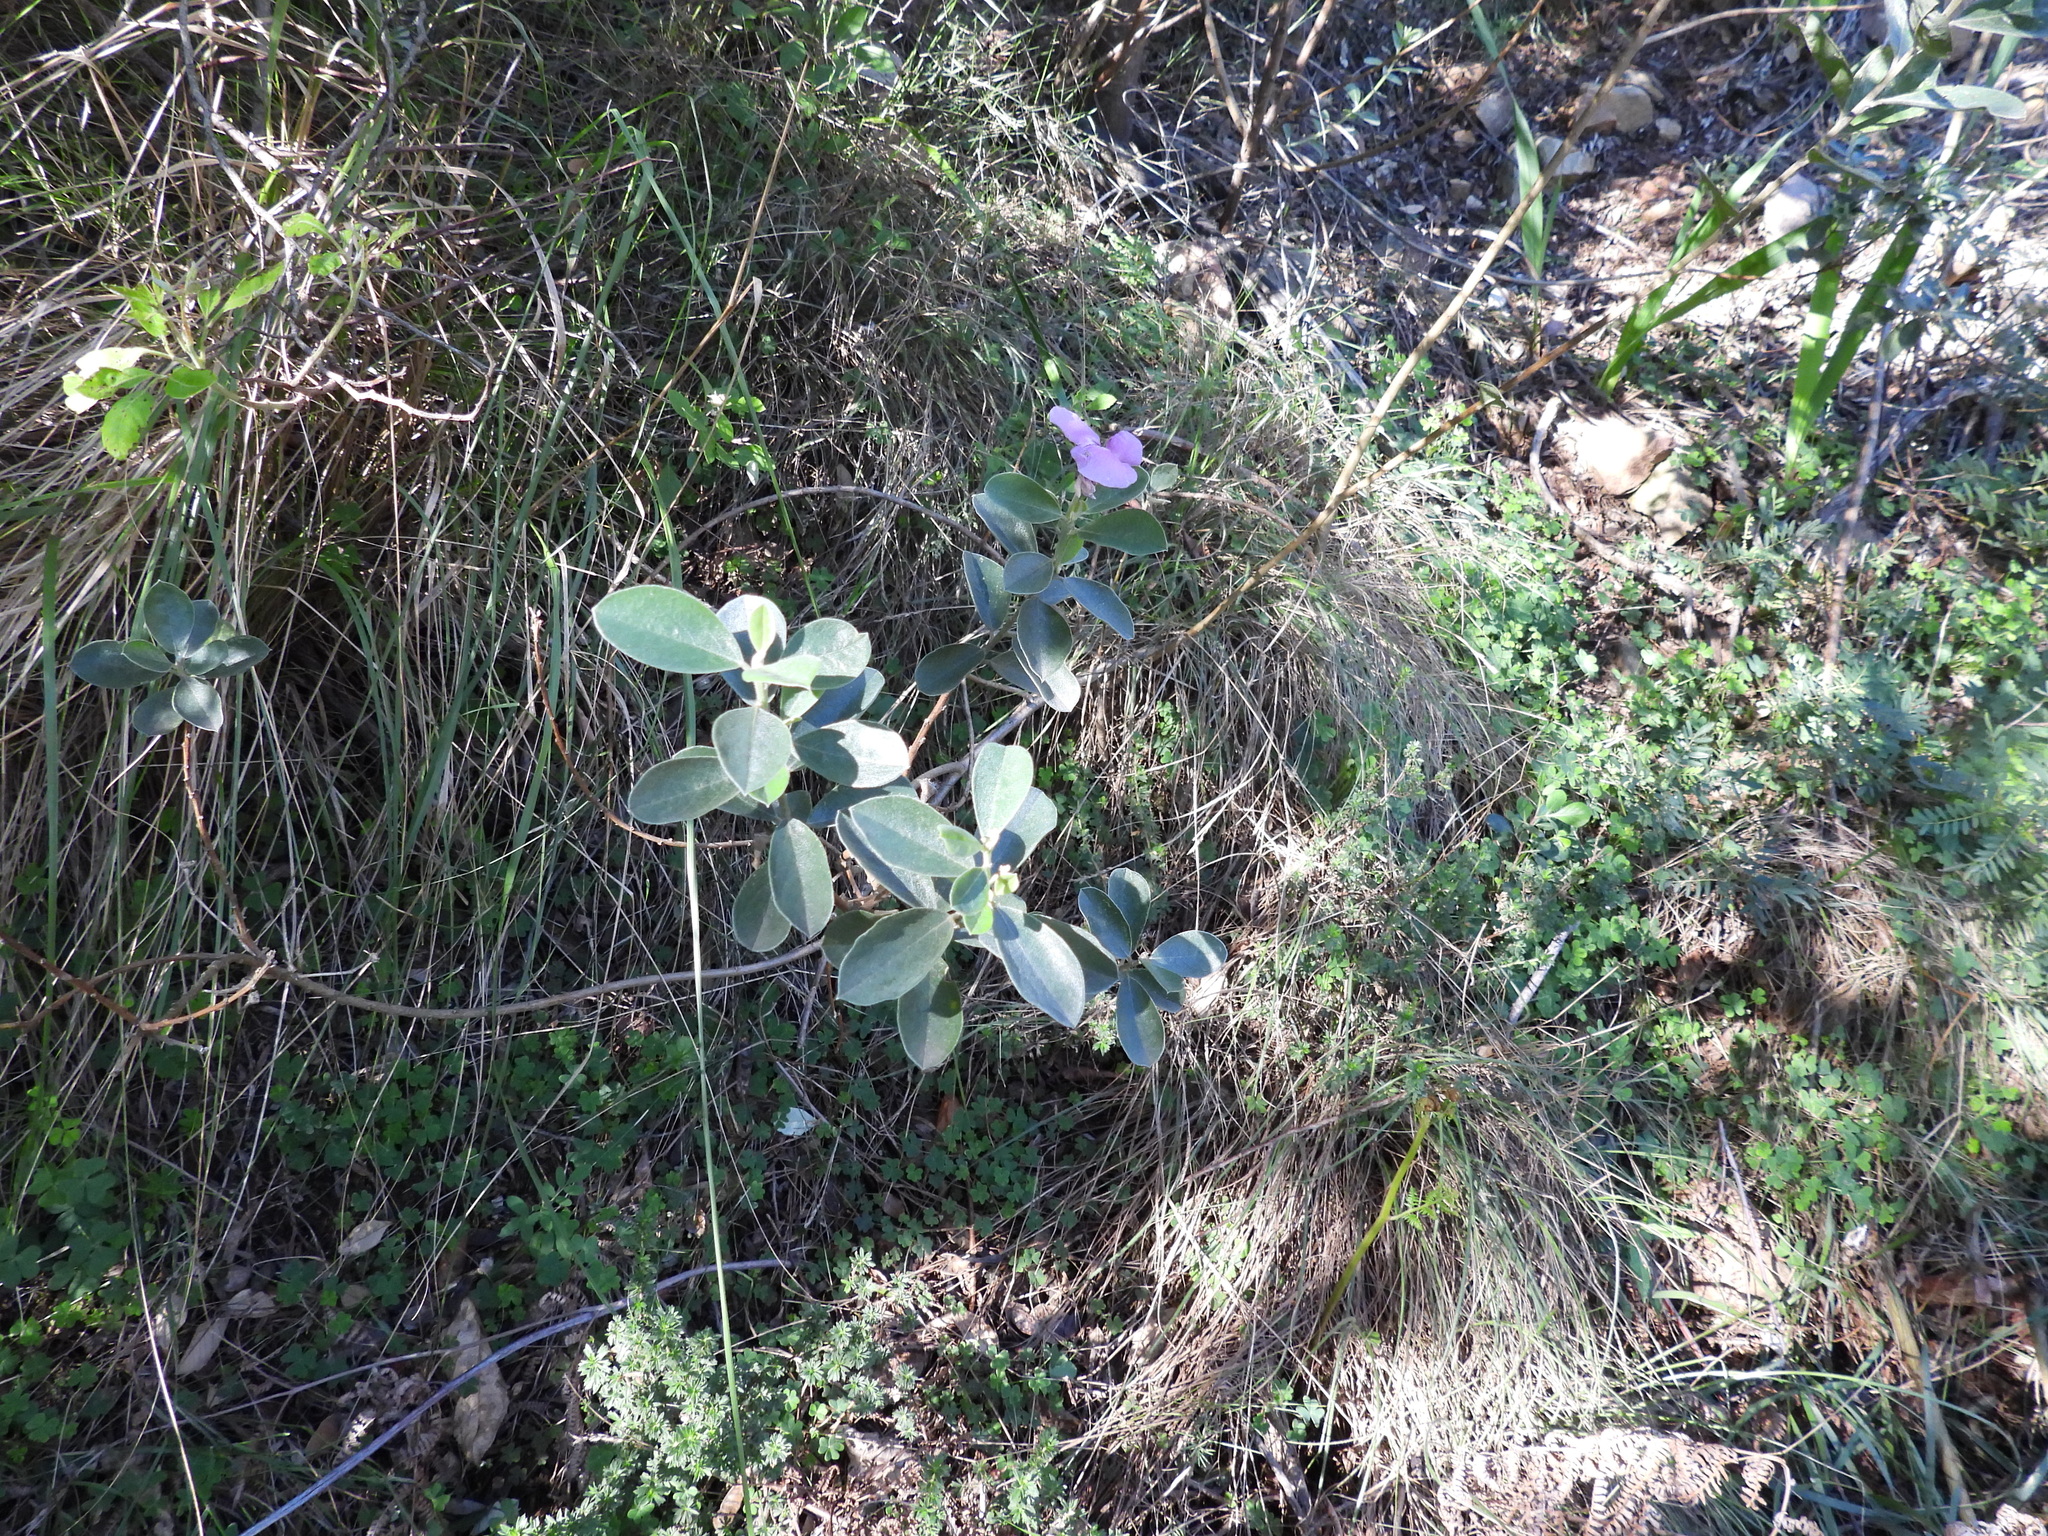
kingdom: Plantae
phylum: Tracheophyta
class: Magnoliopsida
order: Fabales
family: Fabaceae
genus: Podalyria
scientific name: Podalyria sericea
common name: Silver podalyria
